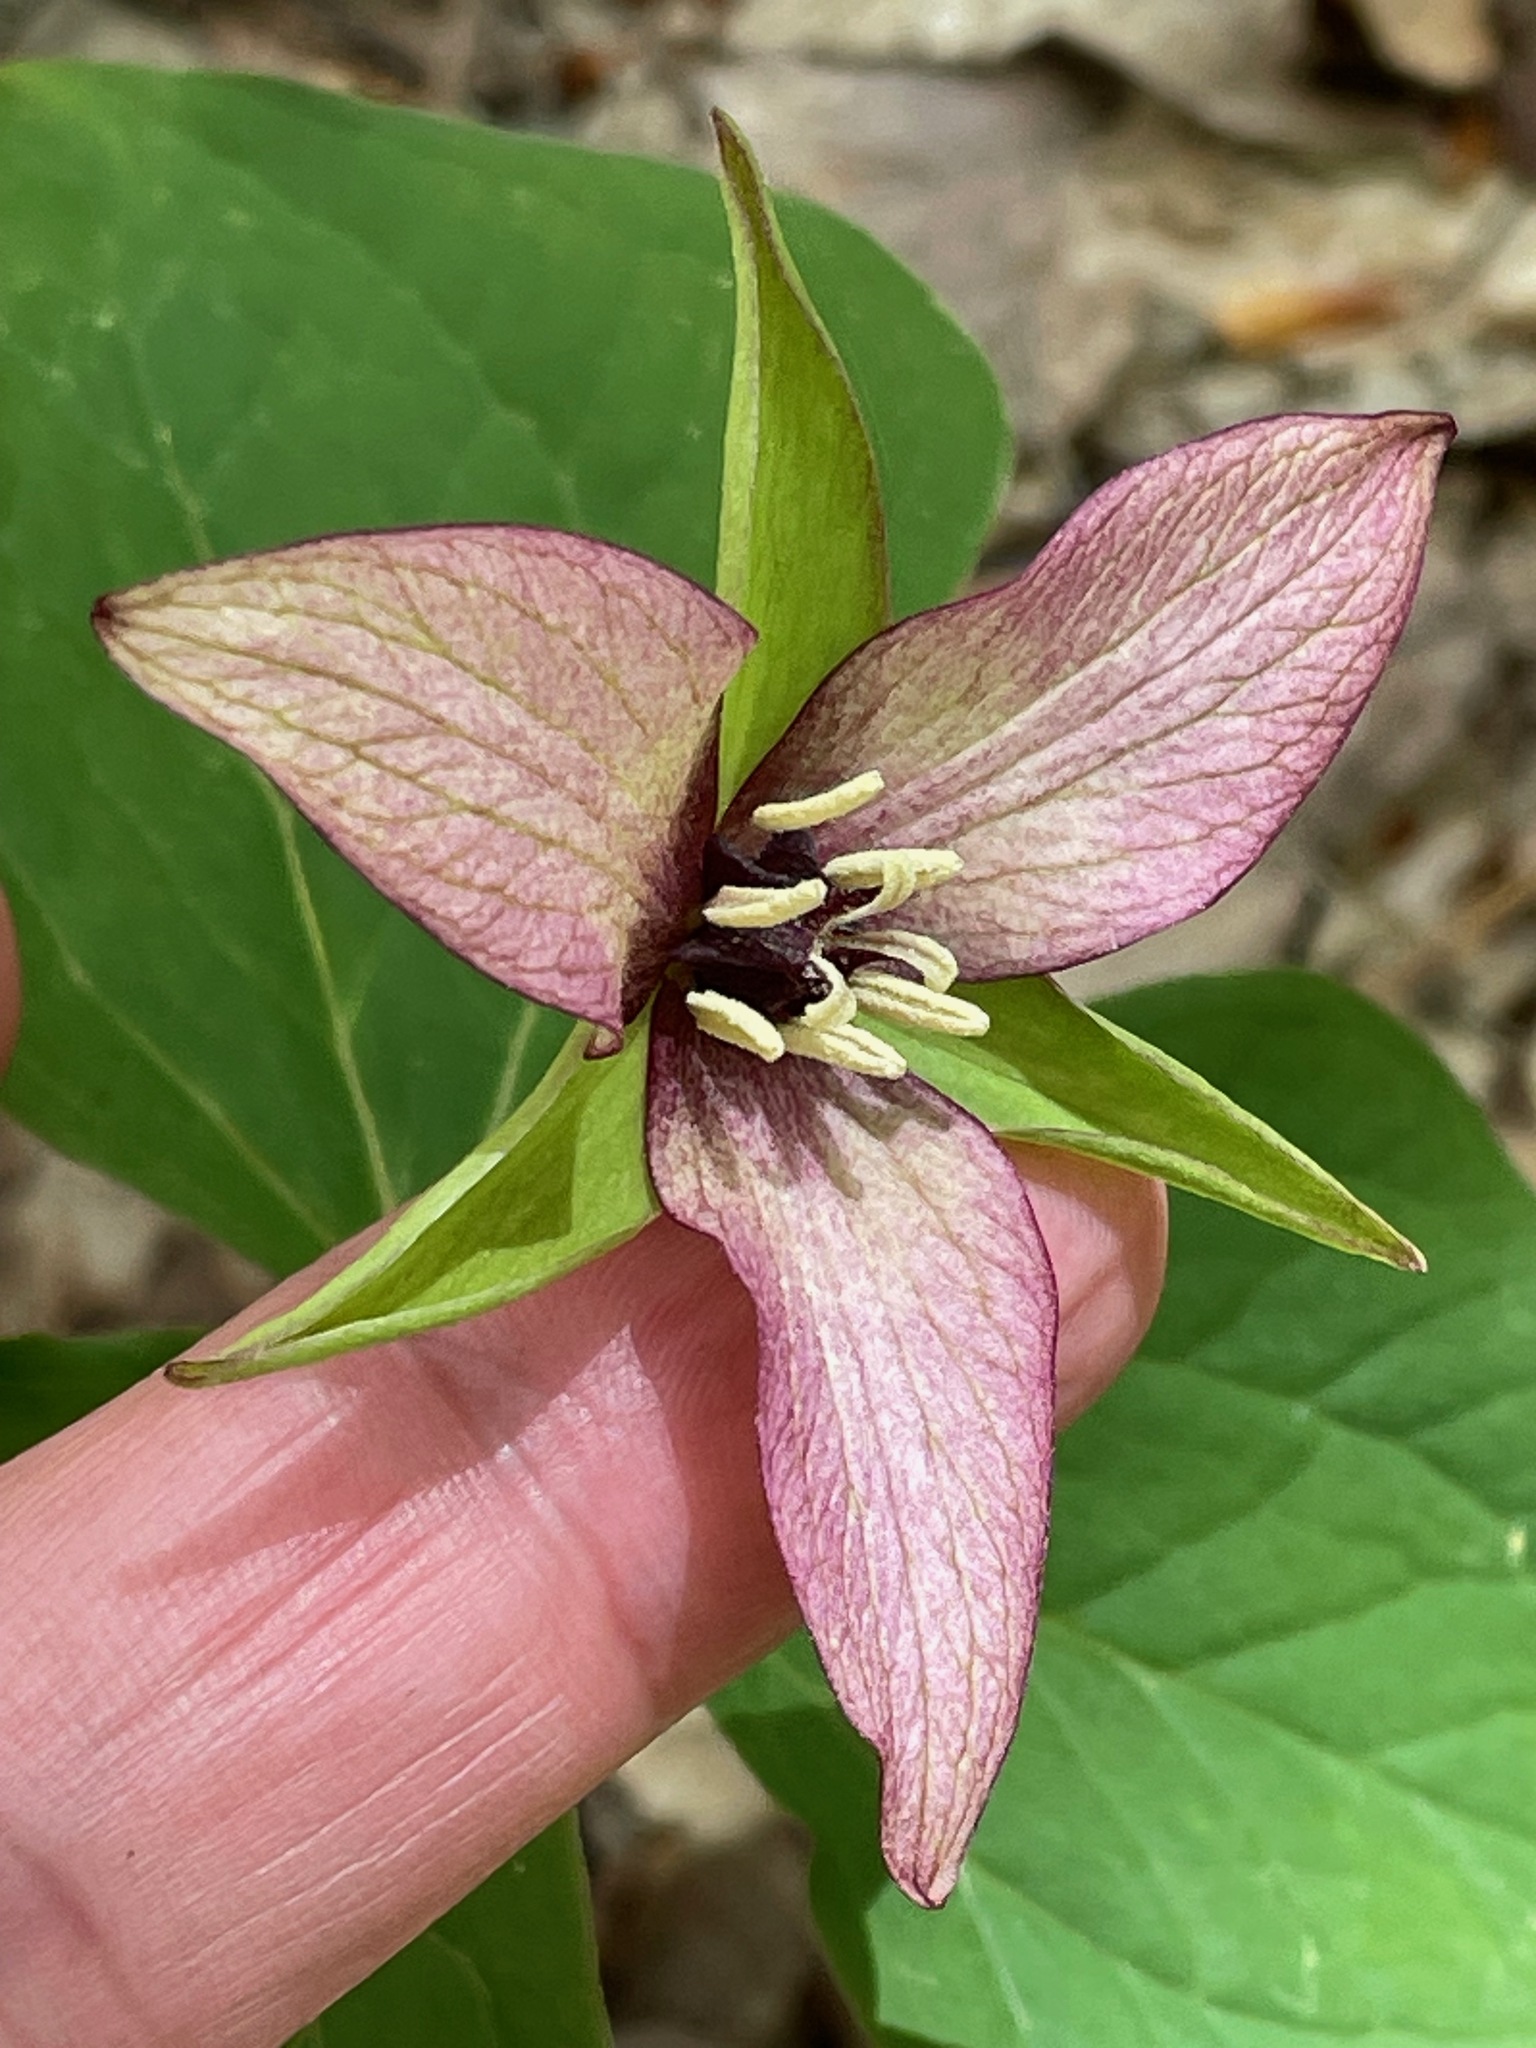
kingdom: Plantae
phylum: Tracheophyta
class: Liliopsida
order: Liliales
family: Melanthiaceae
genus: Trillium
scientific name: Trillium erectum
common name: Purple trillium
